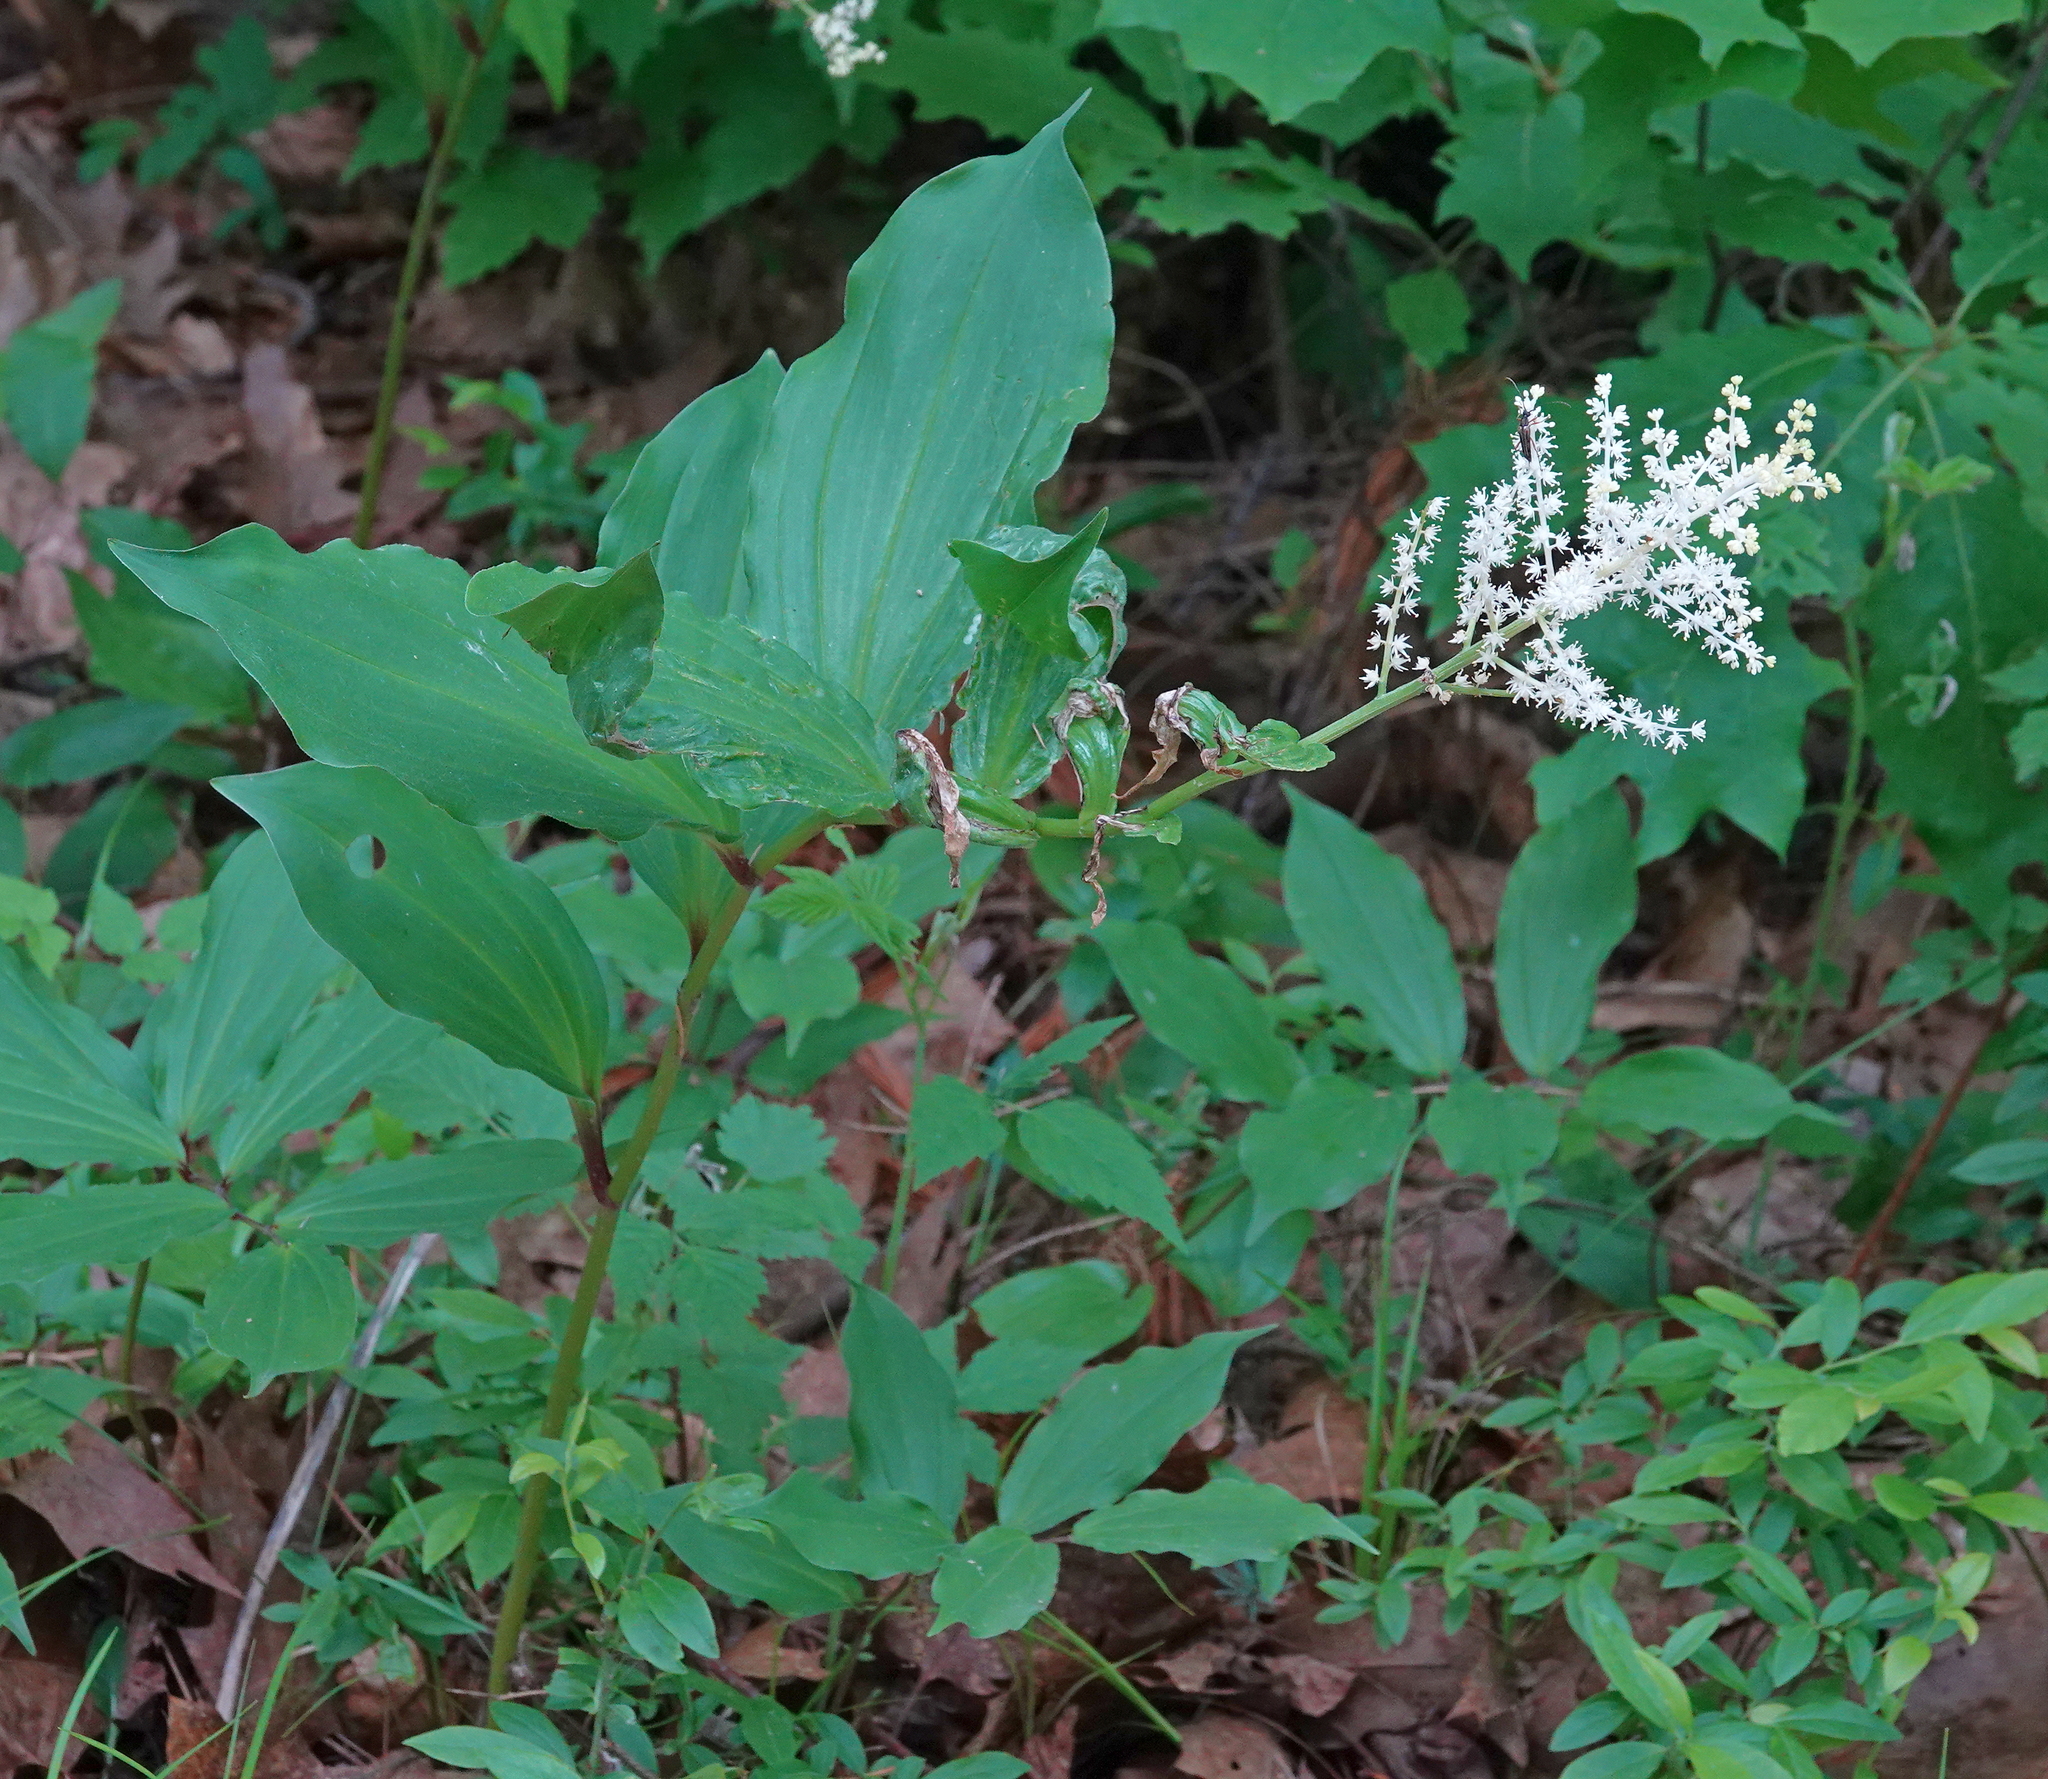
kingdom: Plantae
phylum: Tracheophyta
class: Liliopsida
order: Asparagales
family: Asparagaceae
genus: Maianthemum
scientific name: Maianthemum racemosum
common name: False spikenard
